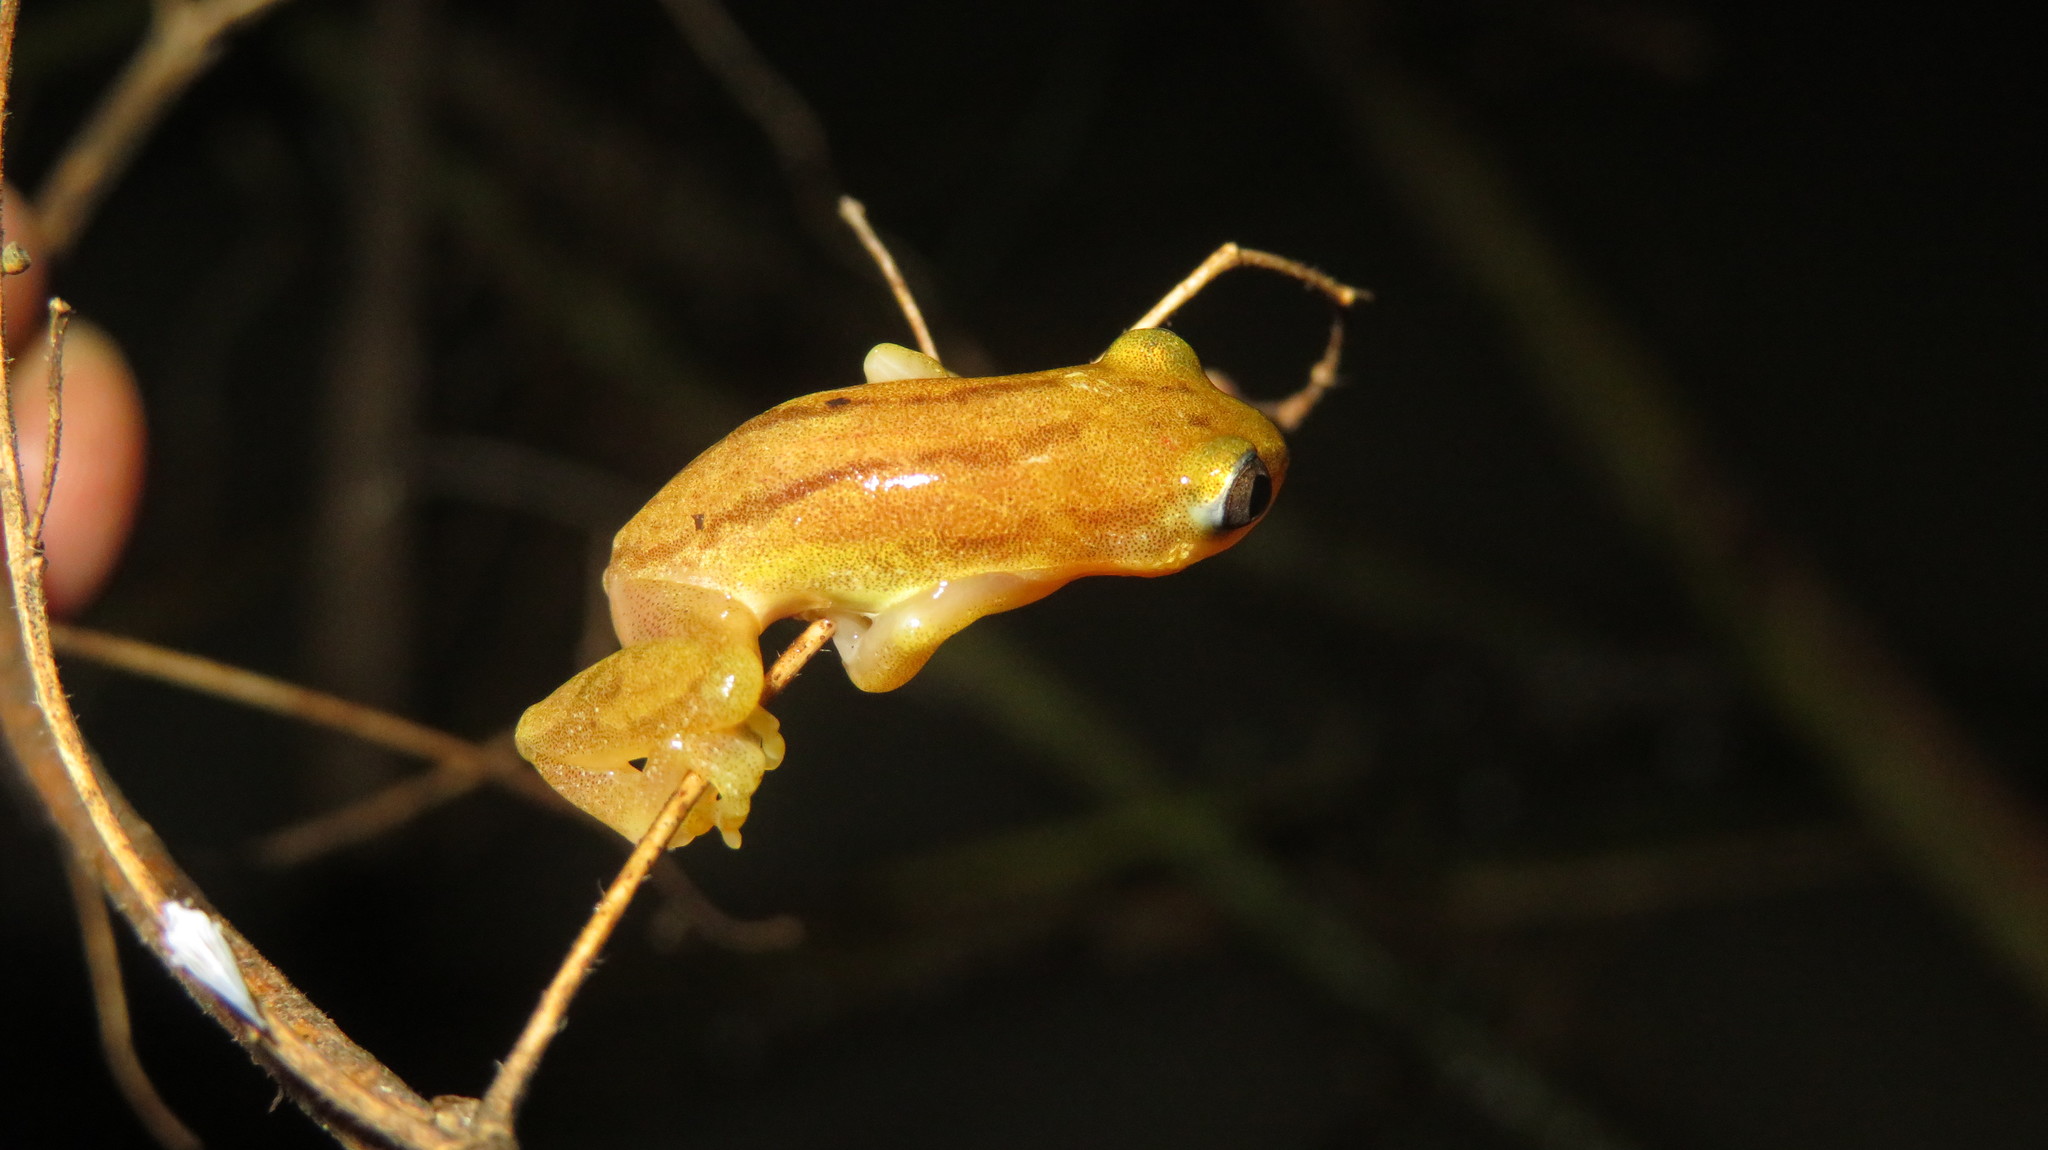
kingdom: Animalia
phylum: Chordata
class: Amphibia
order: Anura
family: Hyperoliidae
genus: Afrixalus
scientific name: Afrixalus delicatus
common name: Delicate leaf-folding frog
